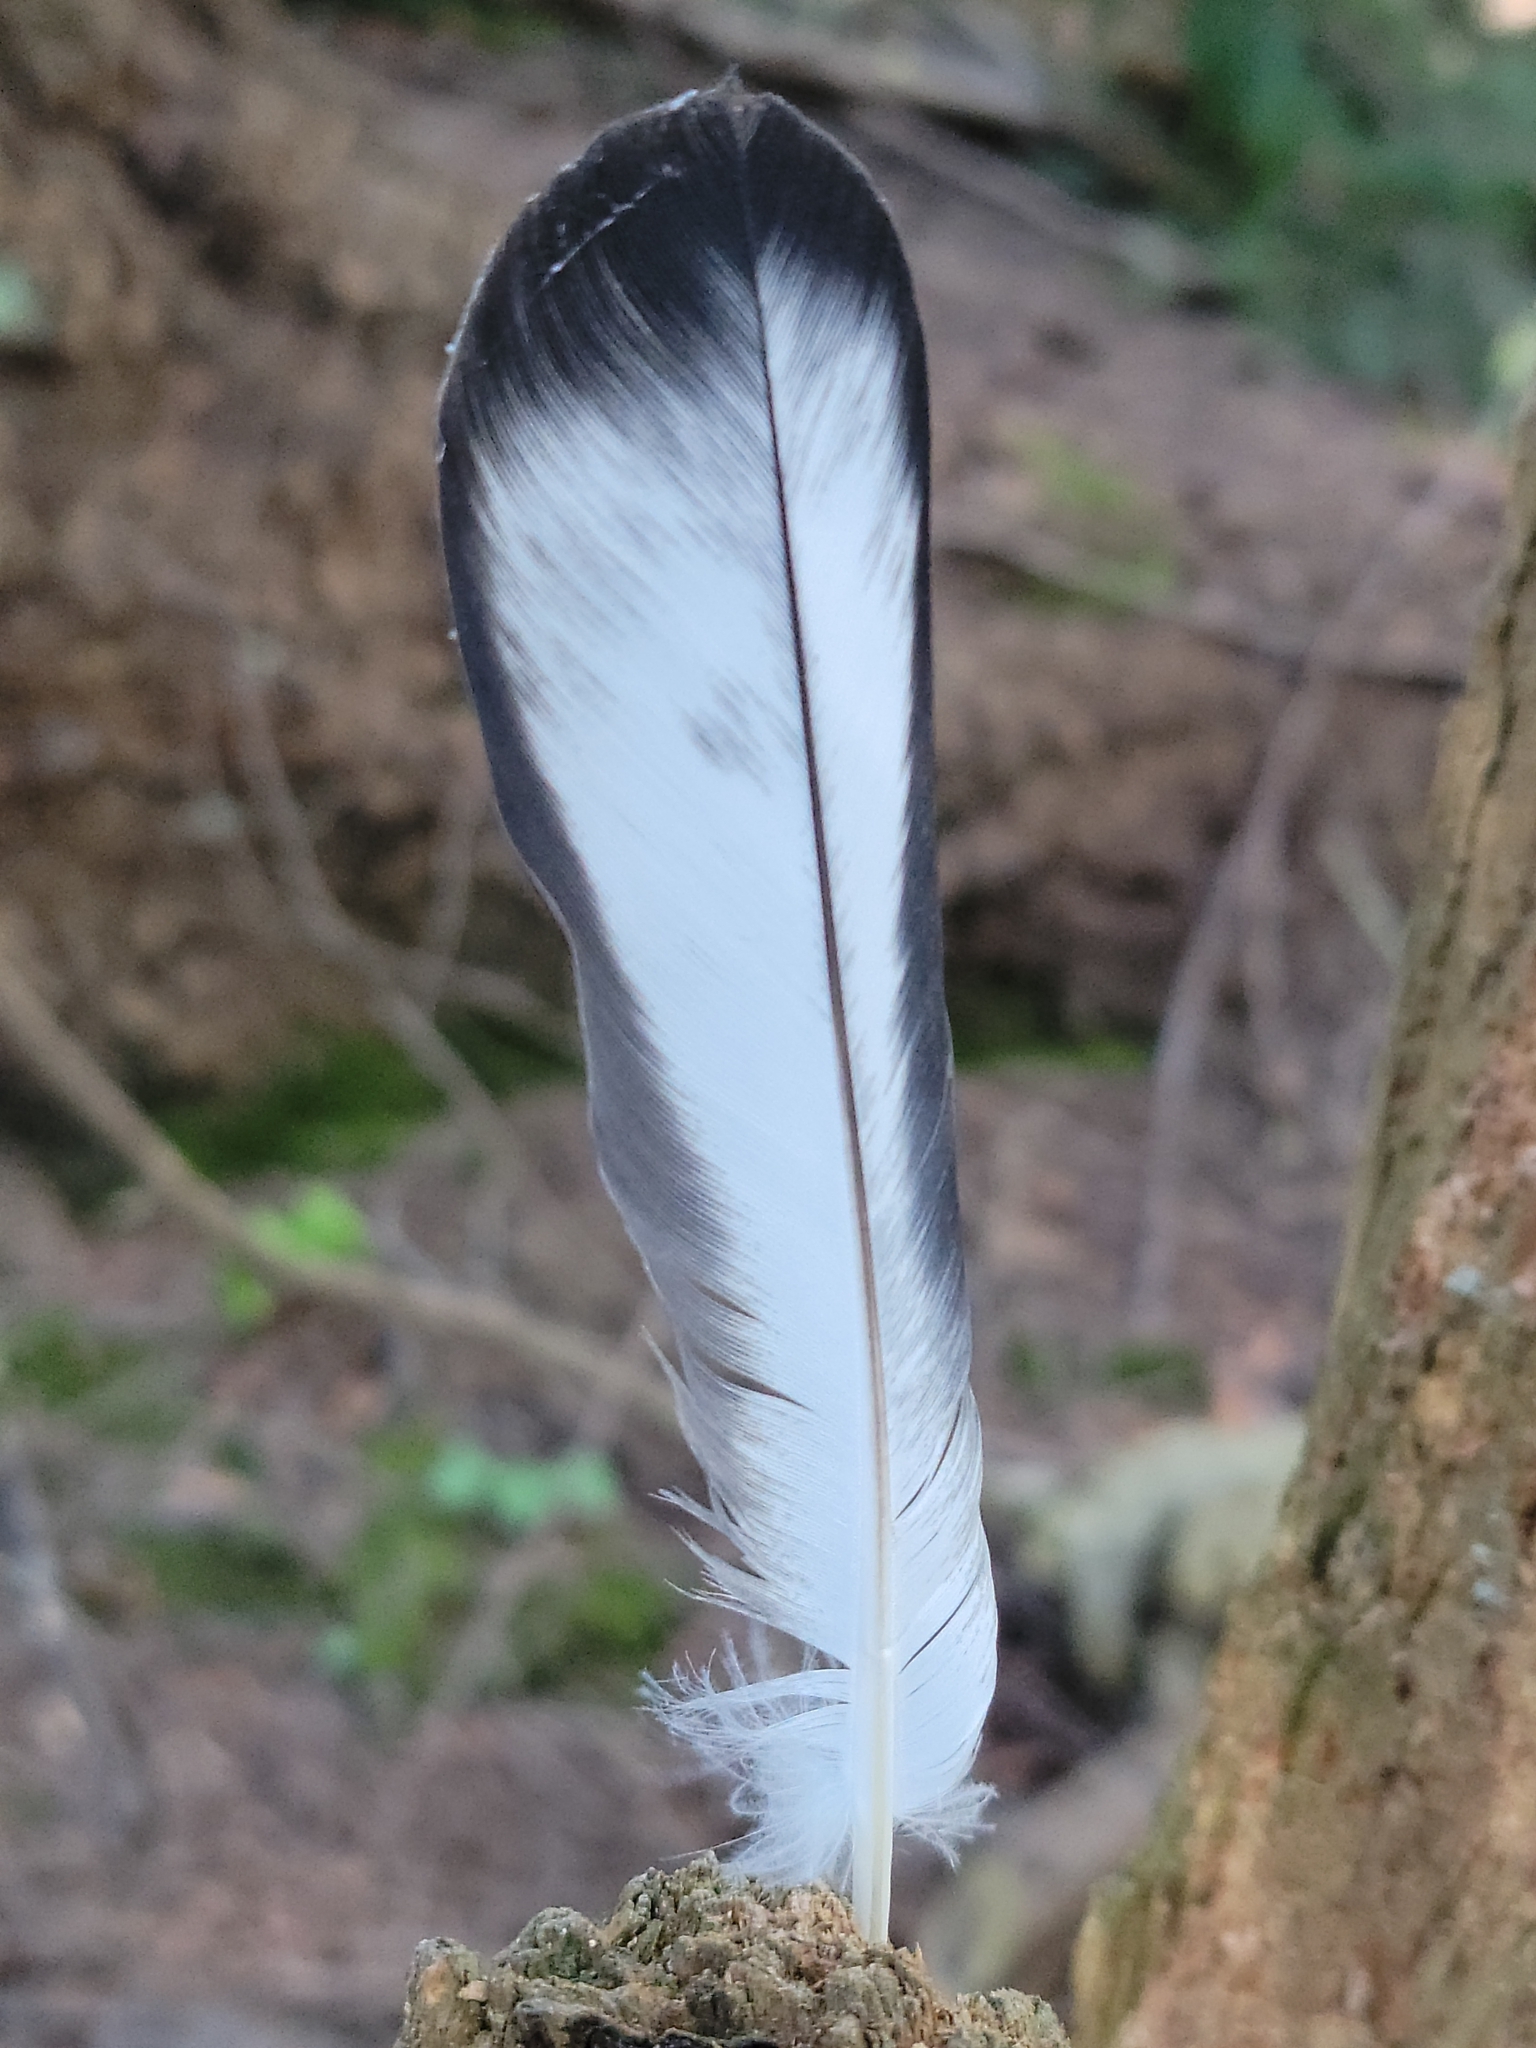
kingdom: Animalia
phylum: Chordata
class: Aves
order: Columbiformes
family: Columbidae
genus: Columba
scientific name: Columba livia
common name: Rock pigeon
